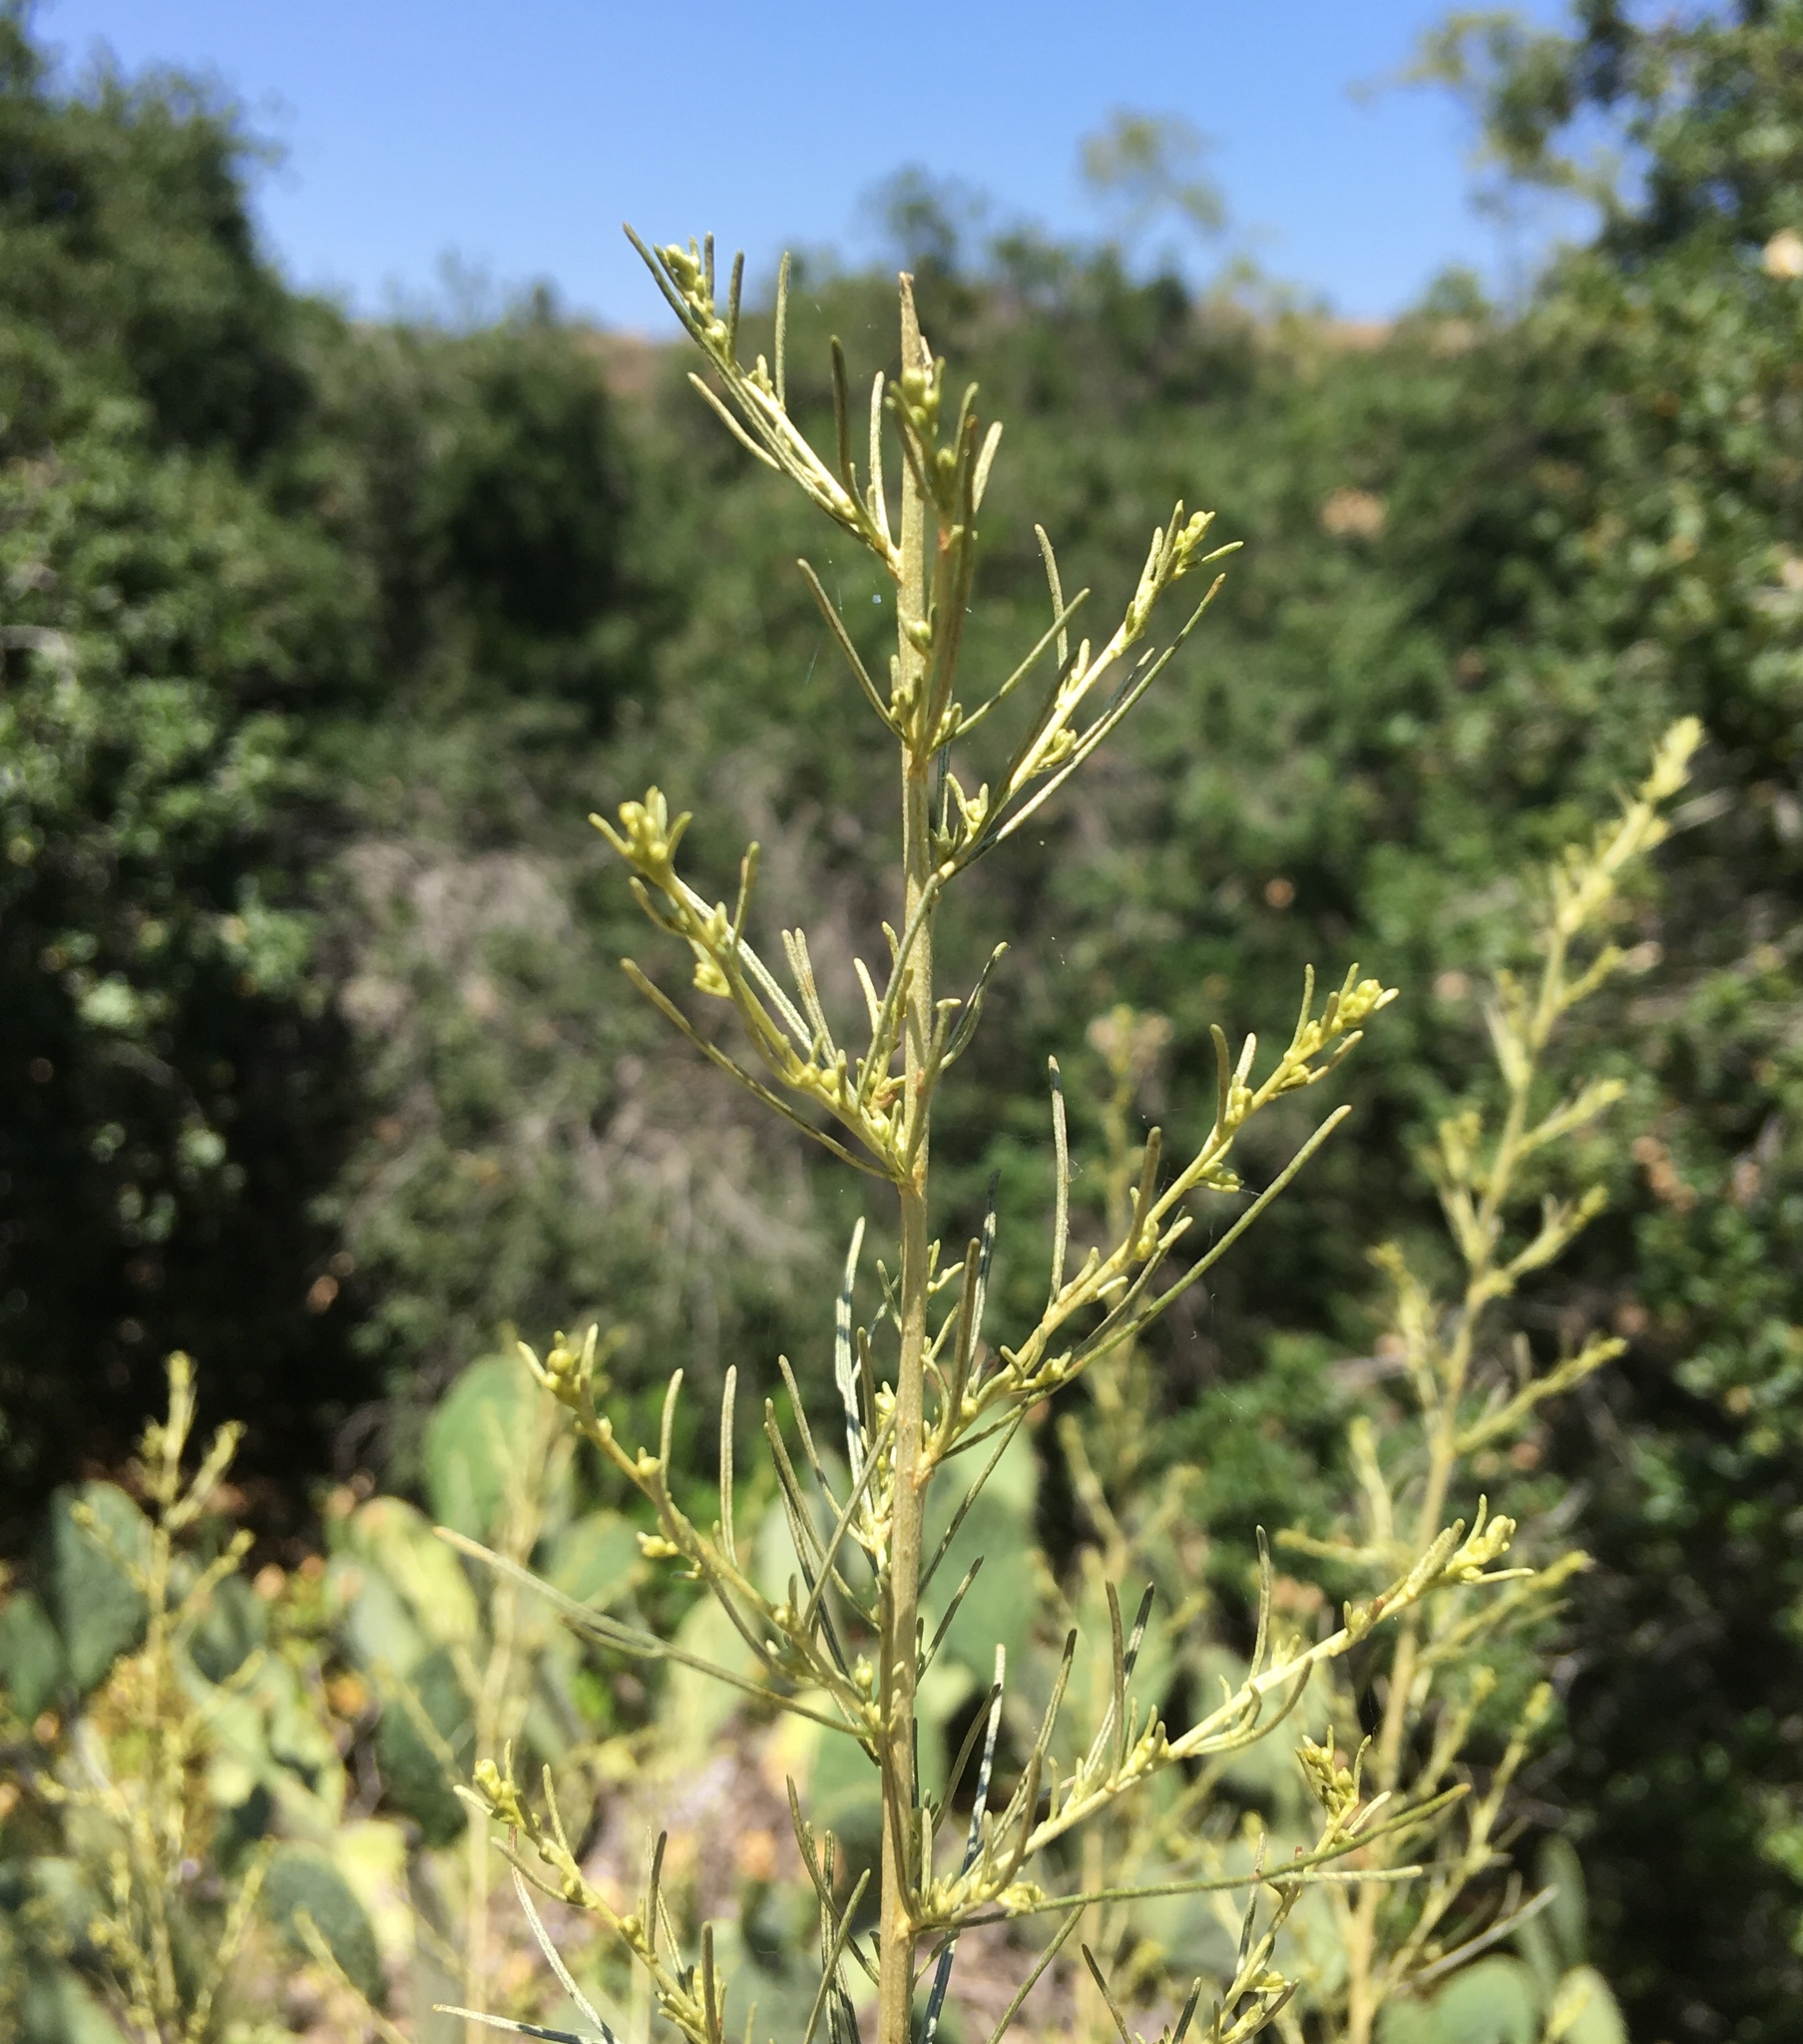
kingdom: Plantae
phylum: Tracheophyta
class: Magnoliopsida
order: Asterales
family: Asteraceae
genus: Artemisia
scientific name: Artemisia californica
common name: California sagebrush
